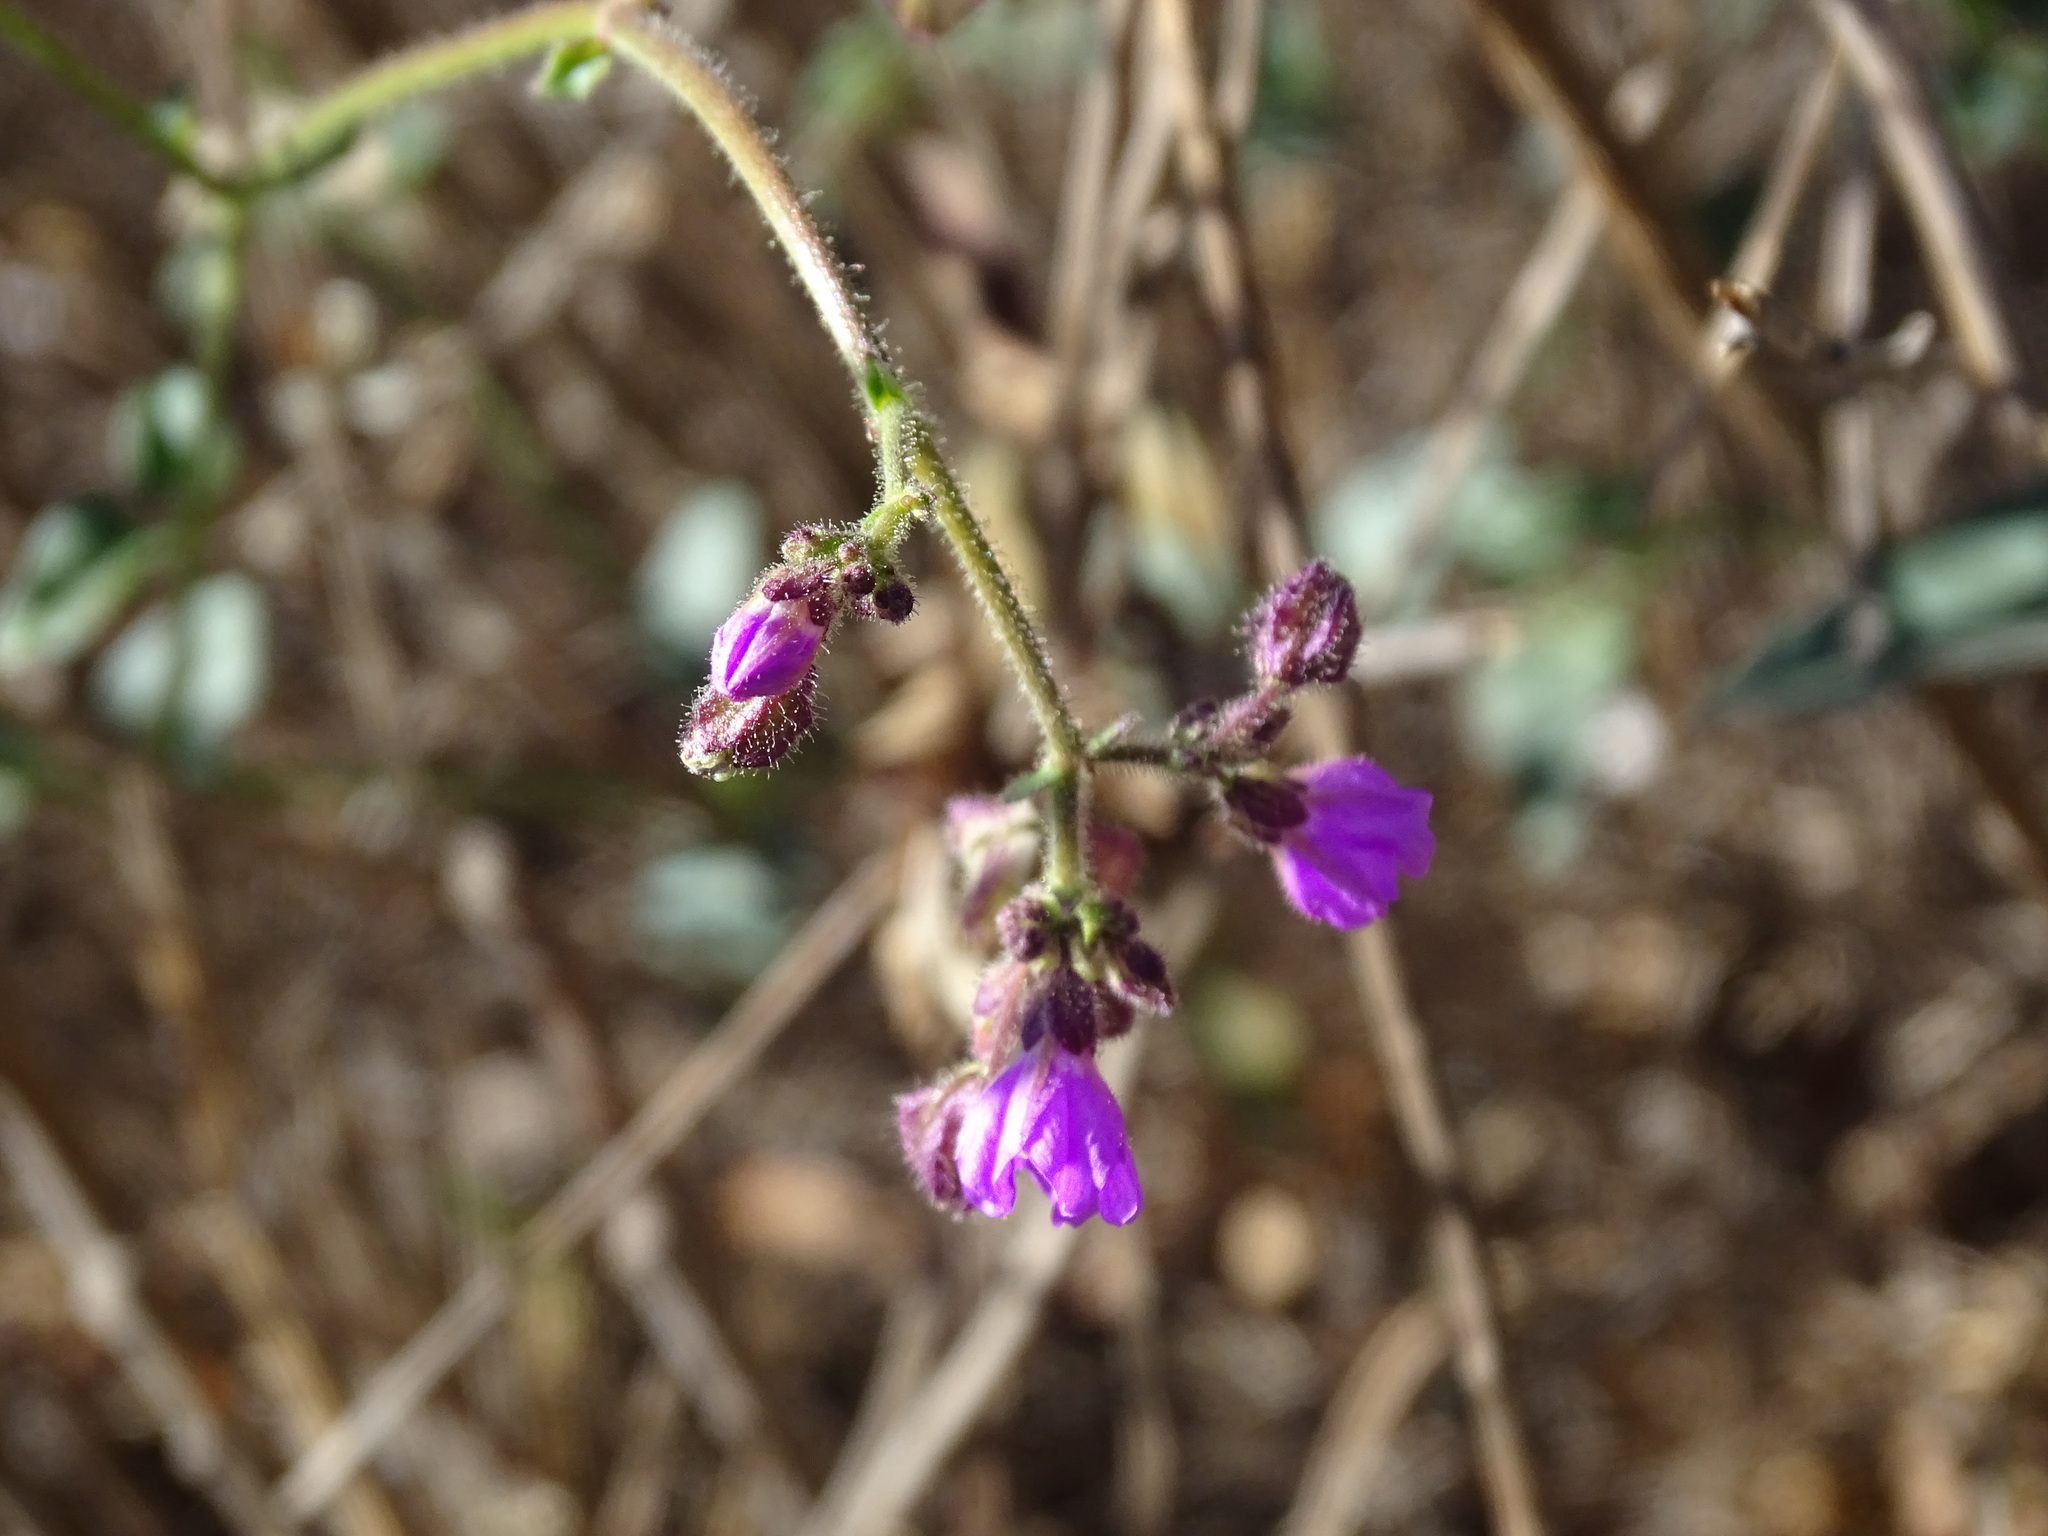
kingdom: Plantae
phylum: Tracheophyta
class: Magnoliopsida
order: Caryophyllales
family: Nyctaginaceae
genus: Mirabilis
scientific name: Mirabilis viscosa
